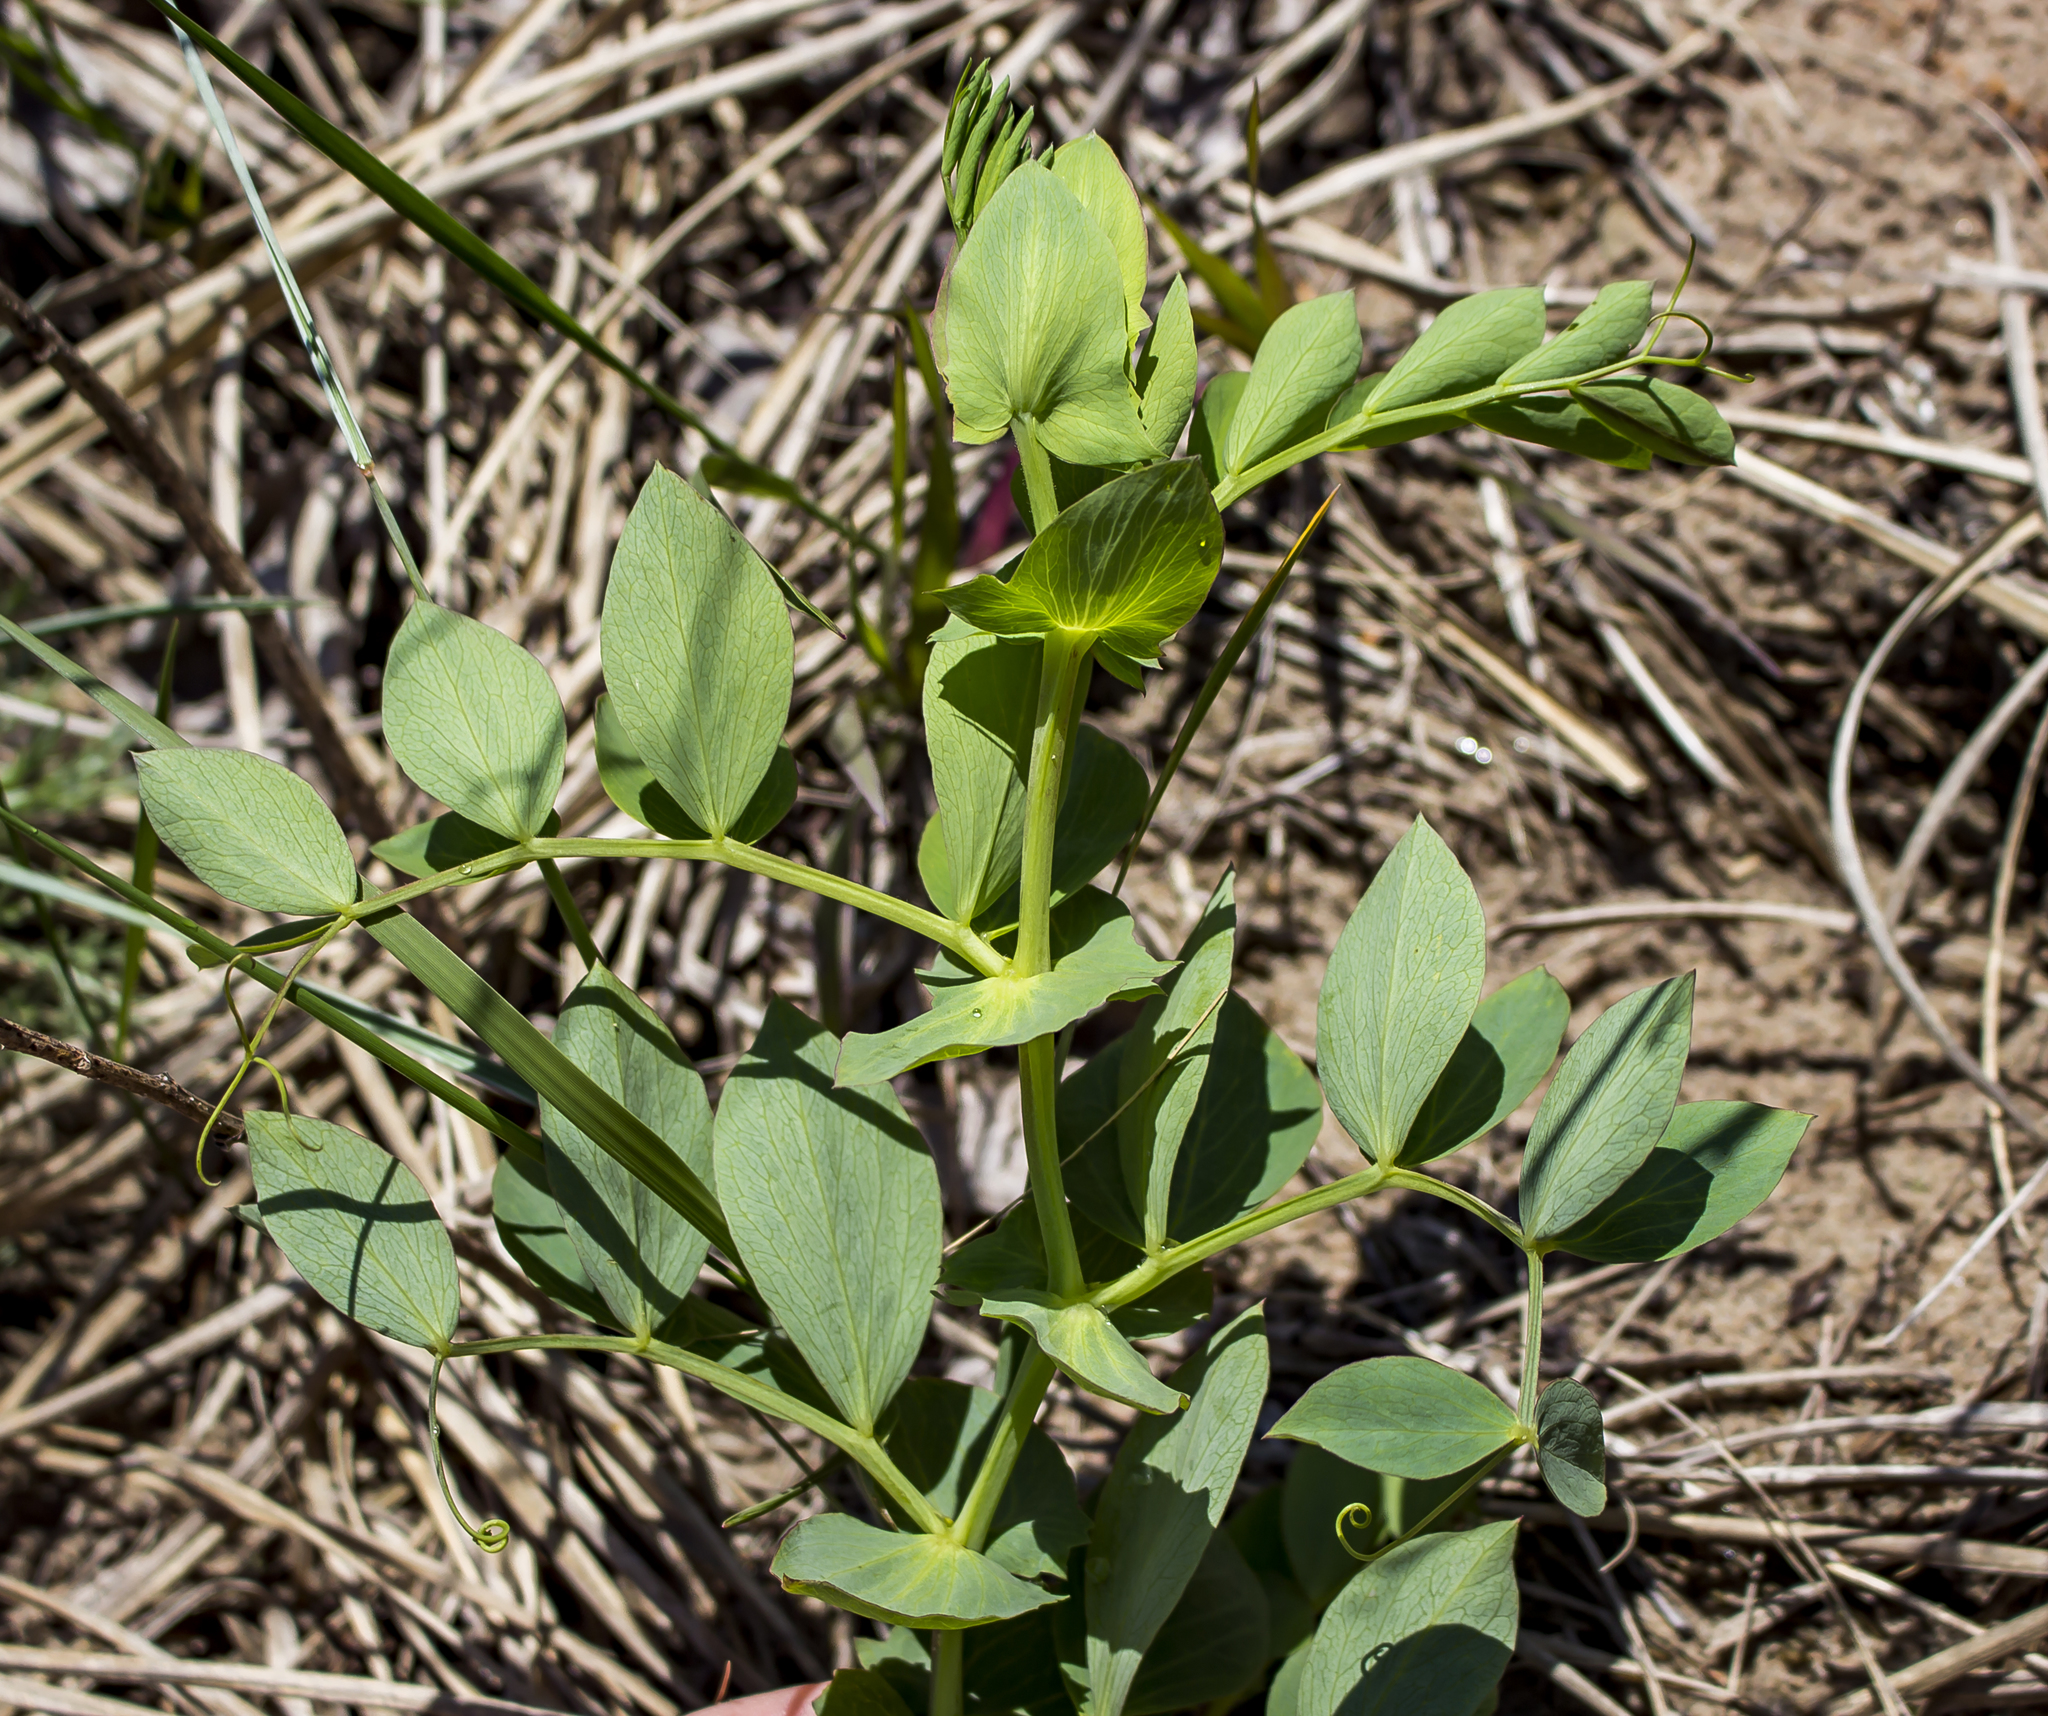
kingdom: Plantae
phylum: Tracheophyta
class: Magnoliopsida
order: Fabales
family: Fabaceae
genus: Lathyrus
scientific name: Lathyrus japonicus
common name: Sea pea
